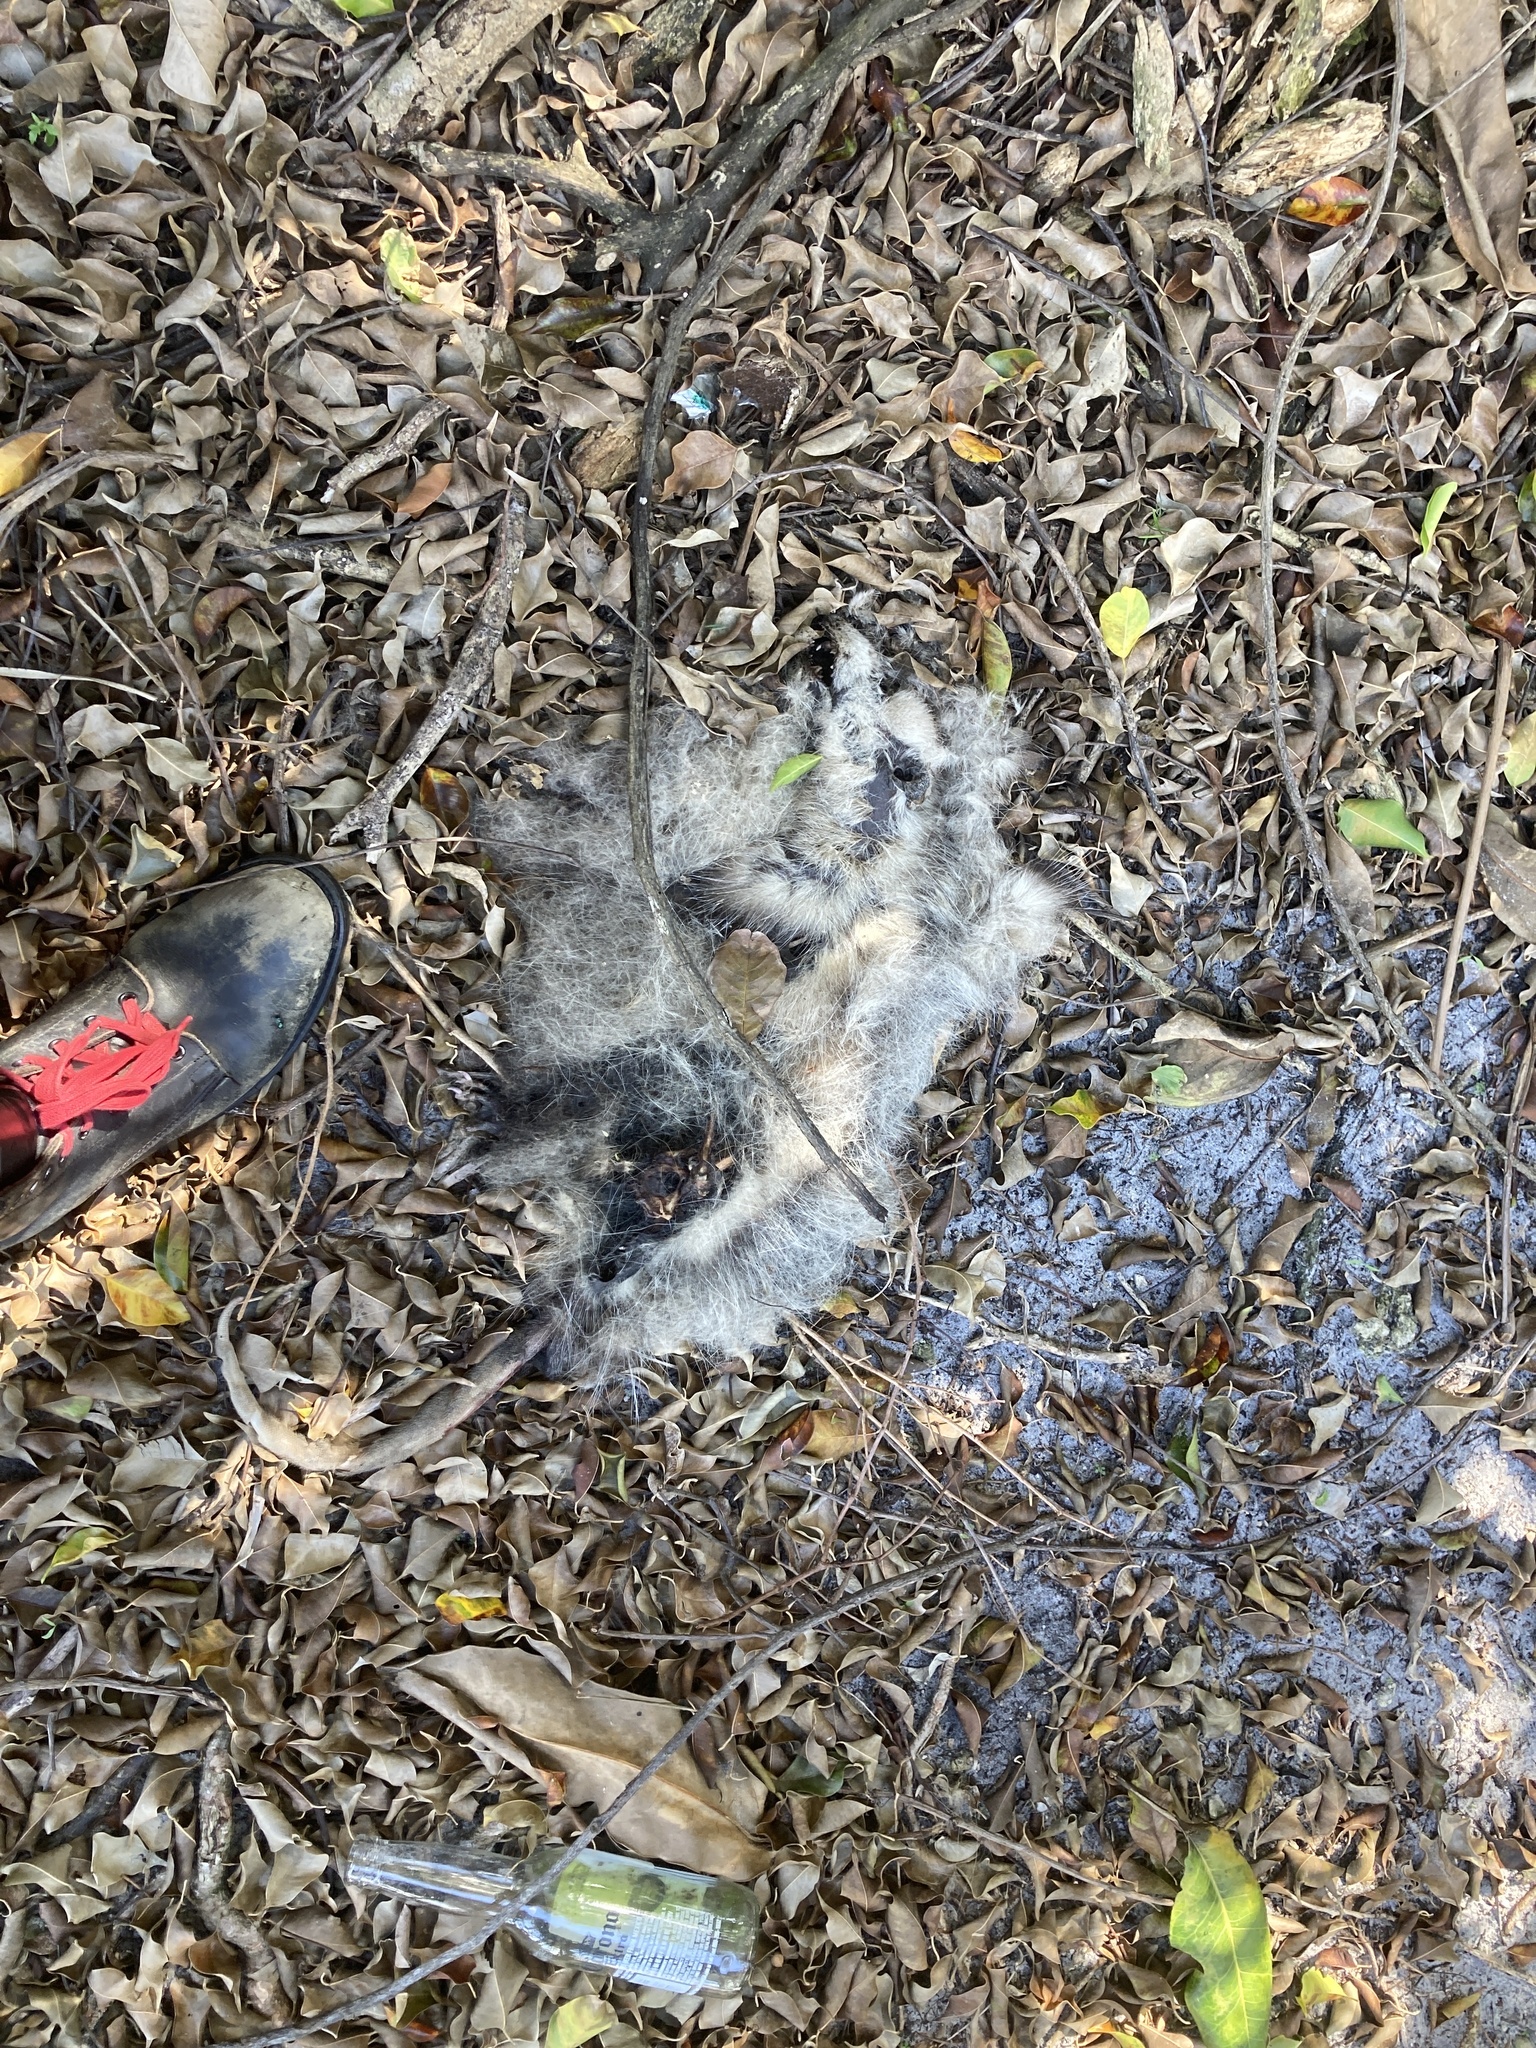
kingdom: Animalia
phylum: Chordata
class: Mammalia
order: Didelphimorphia
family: Didelphidae
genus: Didelphis
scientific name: Didelphis virginiana
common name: Virginia opossum
